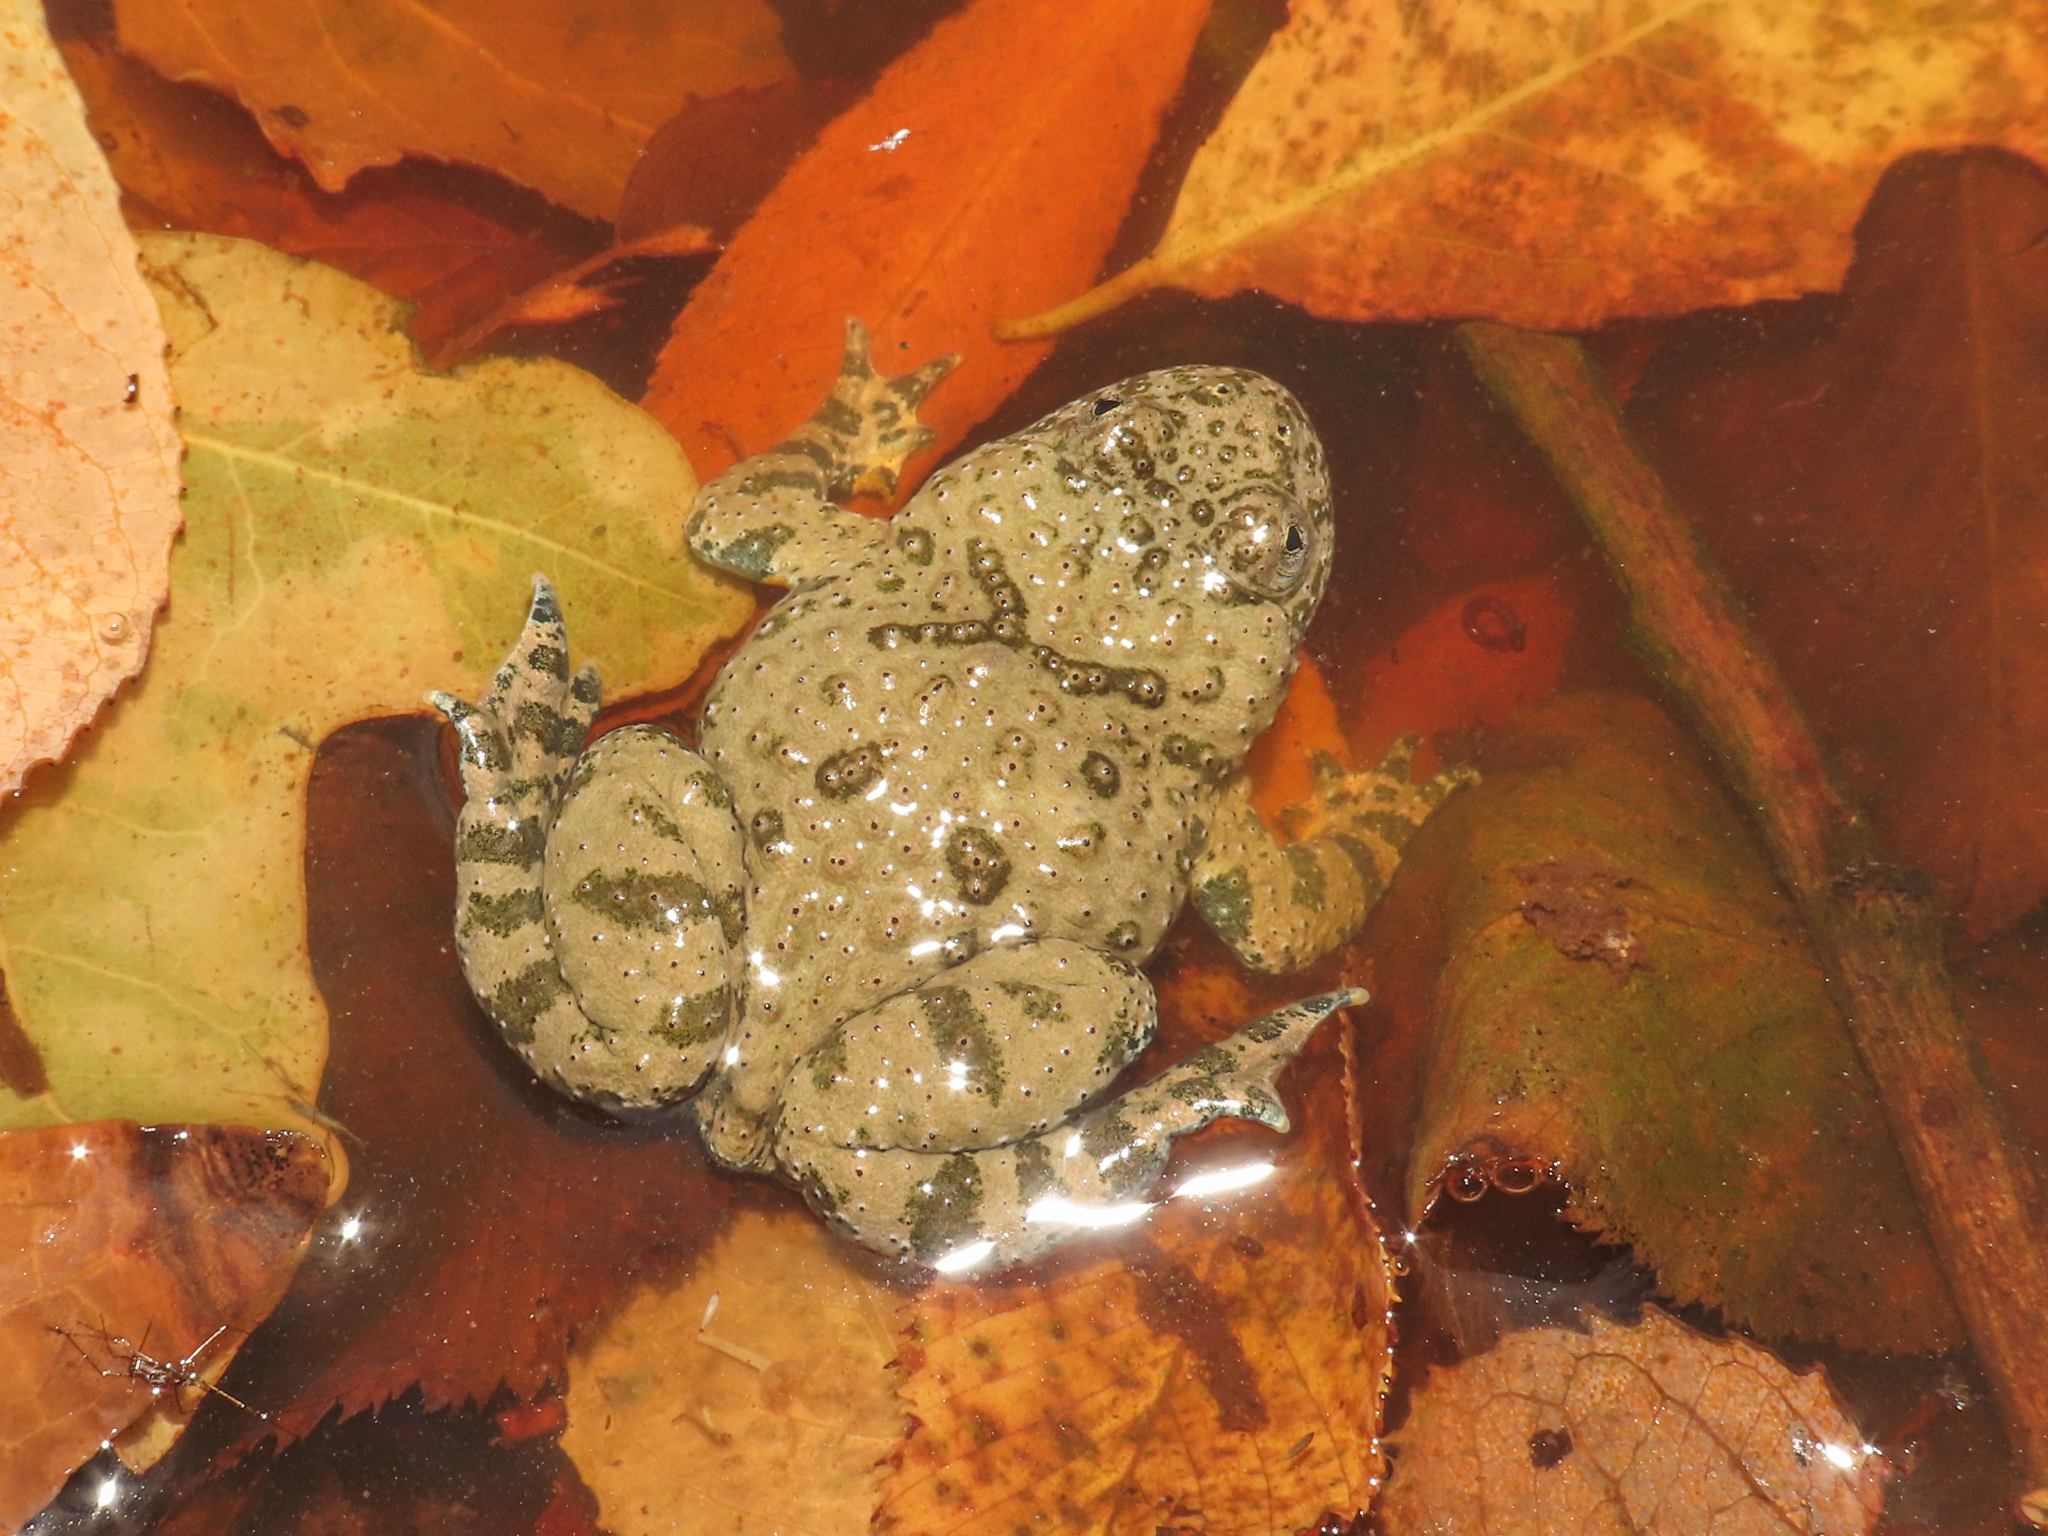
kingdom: Animalia
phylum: Chordata
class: Amphibia
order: Anura
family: Bombinatoridae
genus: Bombina
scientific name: Bombina variegata
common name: Yellow-bellied toad
